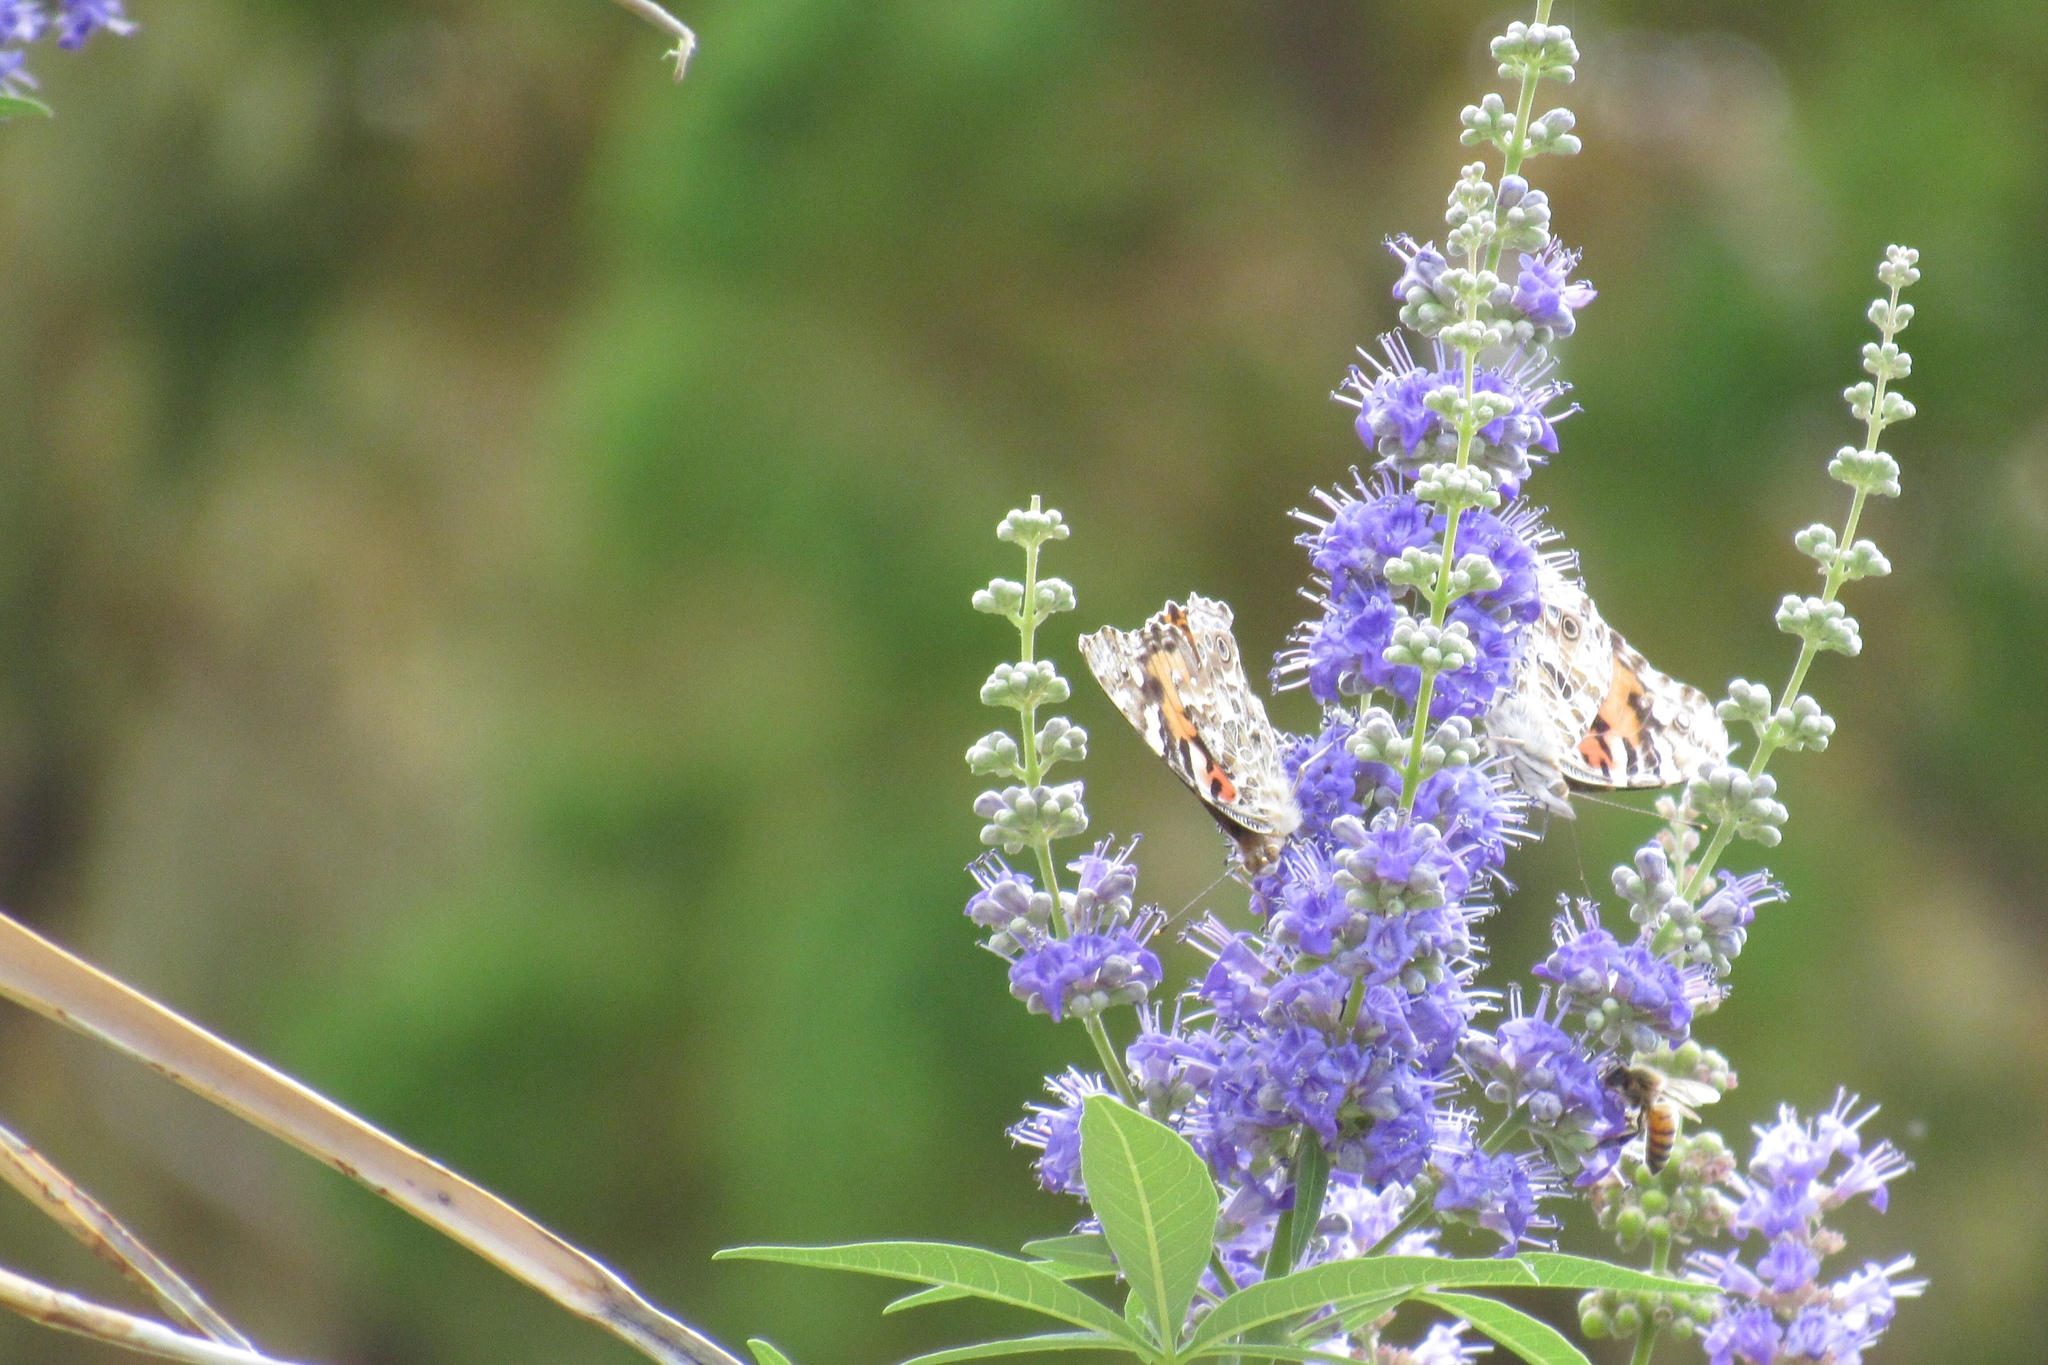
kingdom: Animalia
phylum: Arthropoda
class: Insecta
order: Lepidoptera
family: Nymphalidae
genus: Vanessa
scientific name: Vanessa cardui
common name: Painted lady
